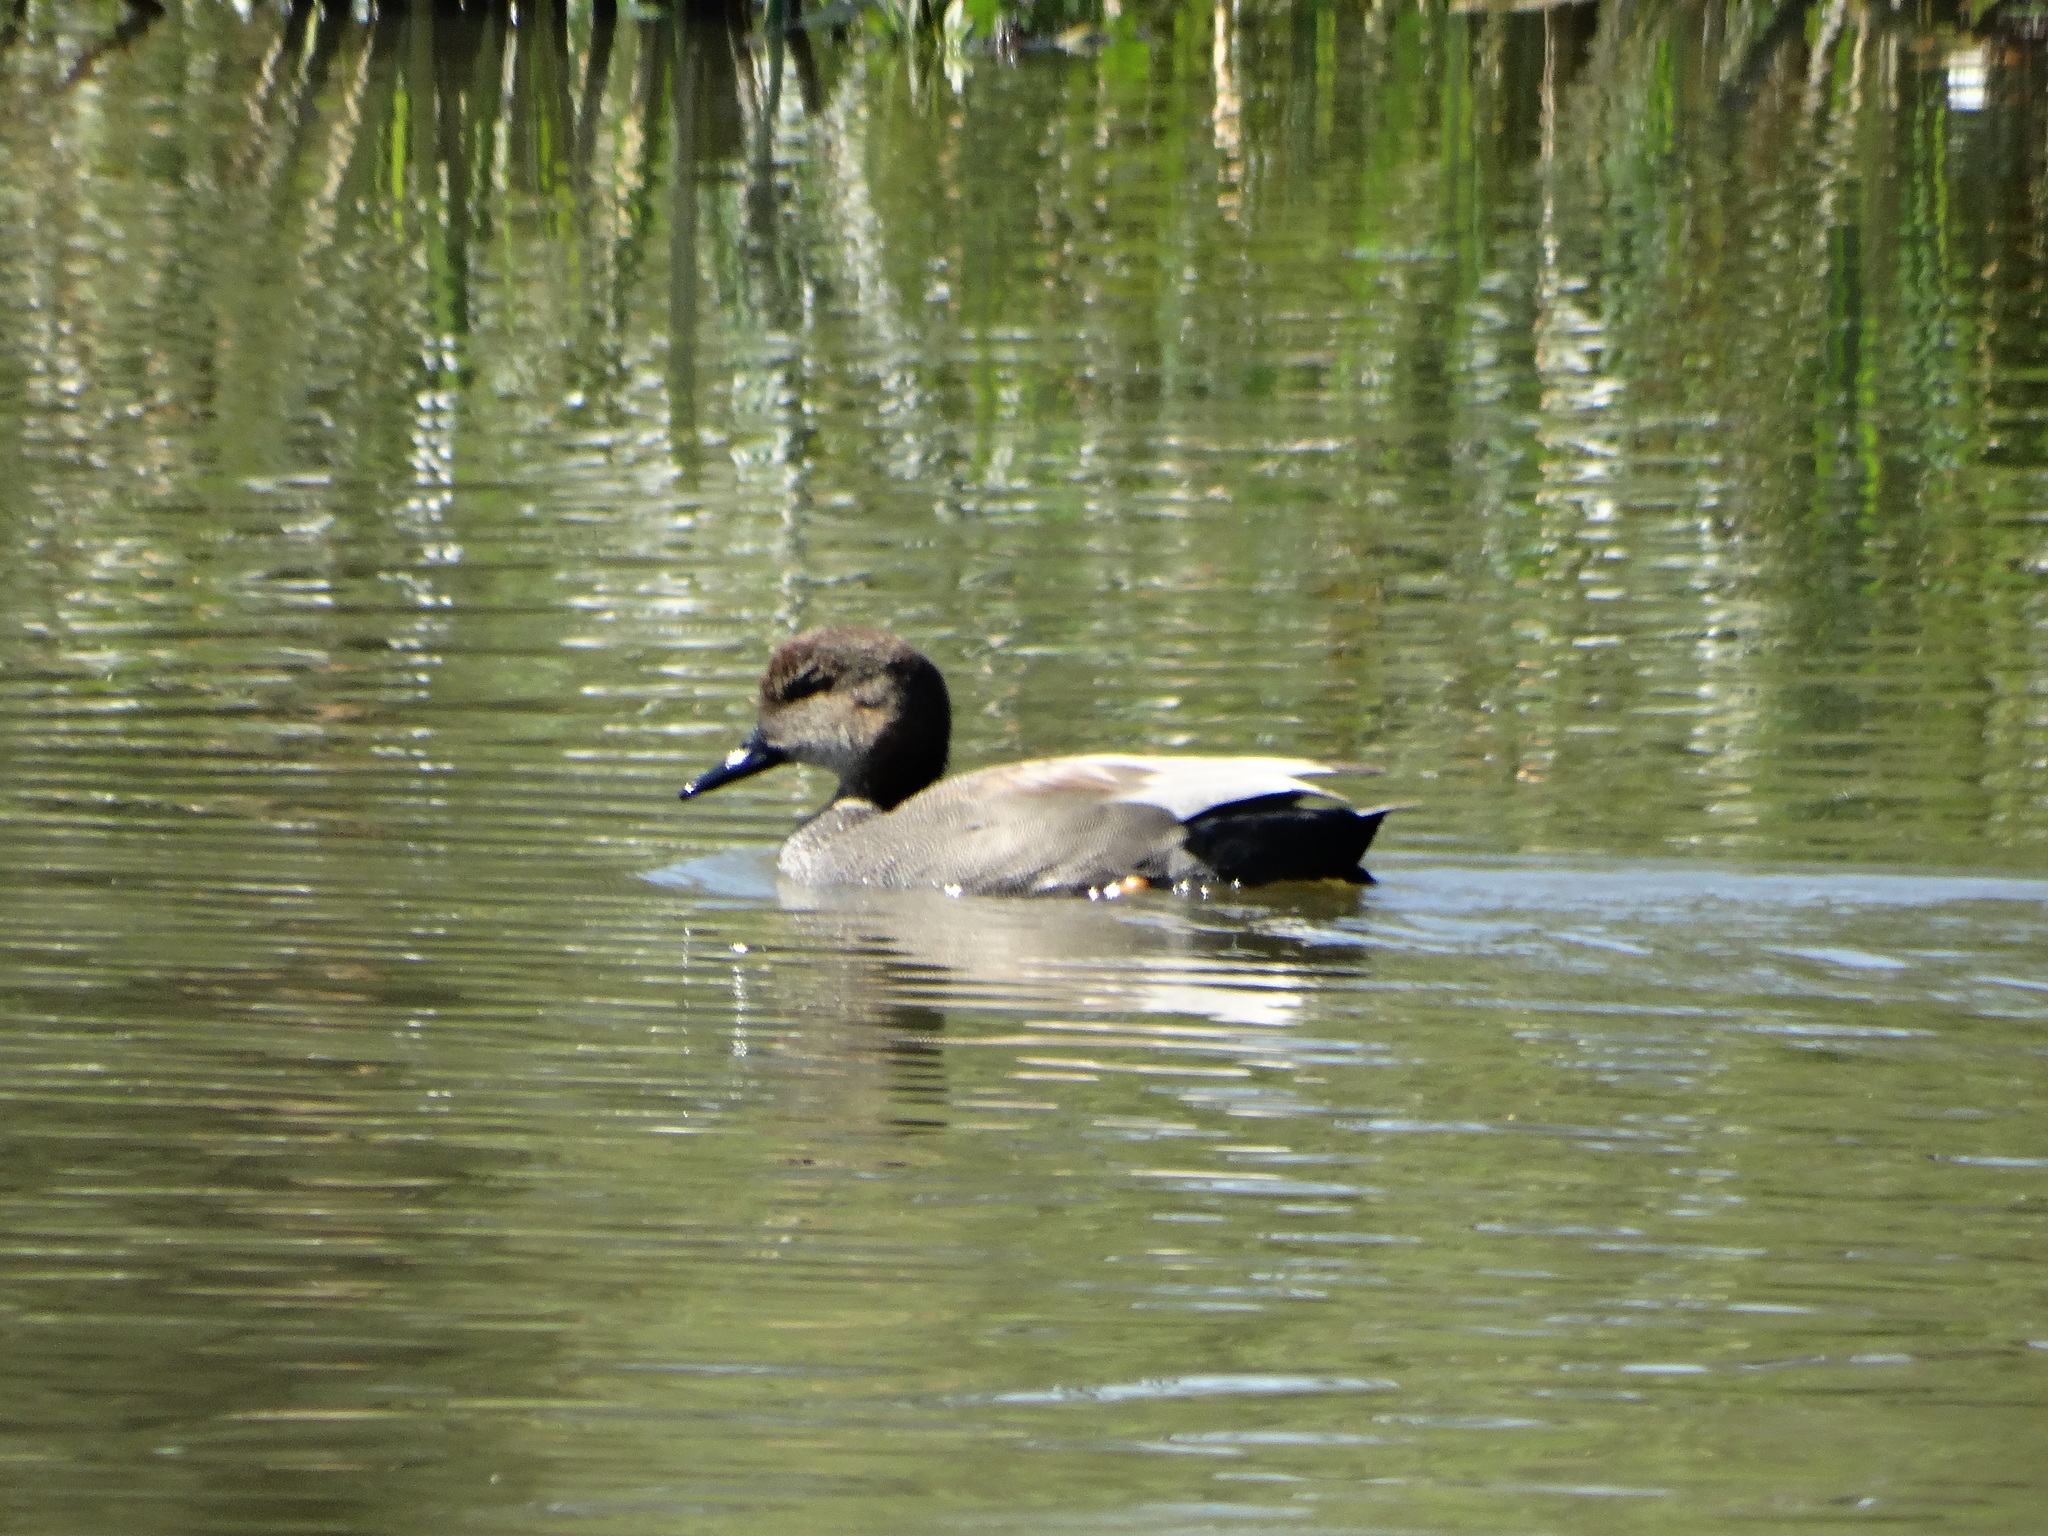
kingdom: Animalia
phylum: Chordata
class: Aves
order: Anseriformes
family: Anatidae
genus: Mareca
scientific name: Mareca strepera
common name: Gadwall
